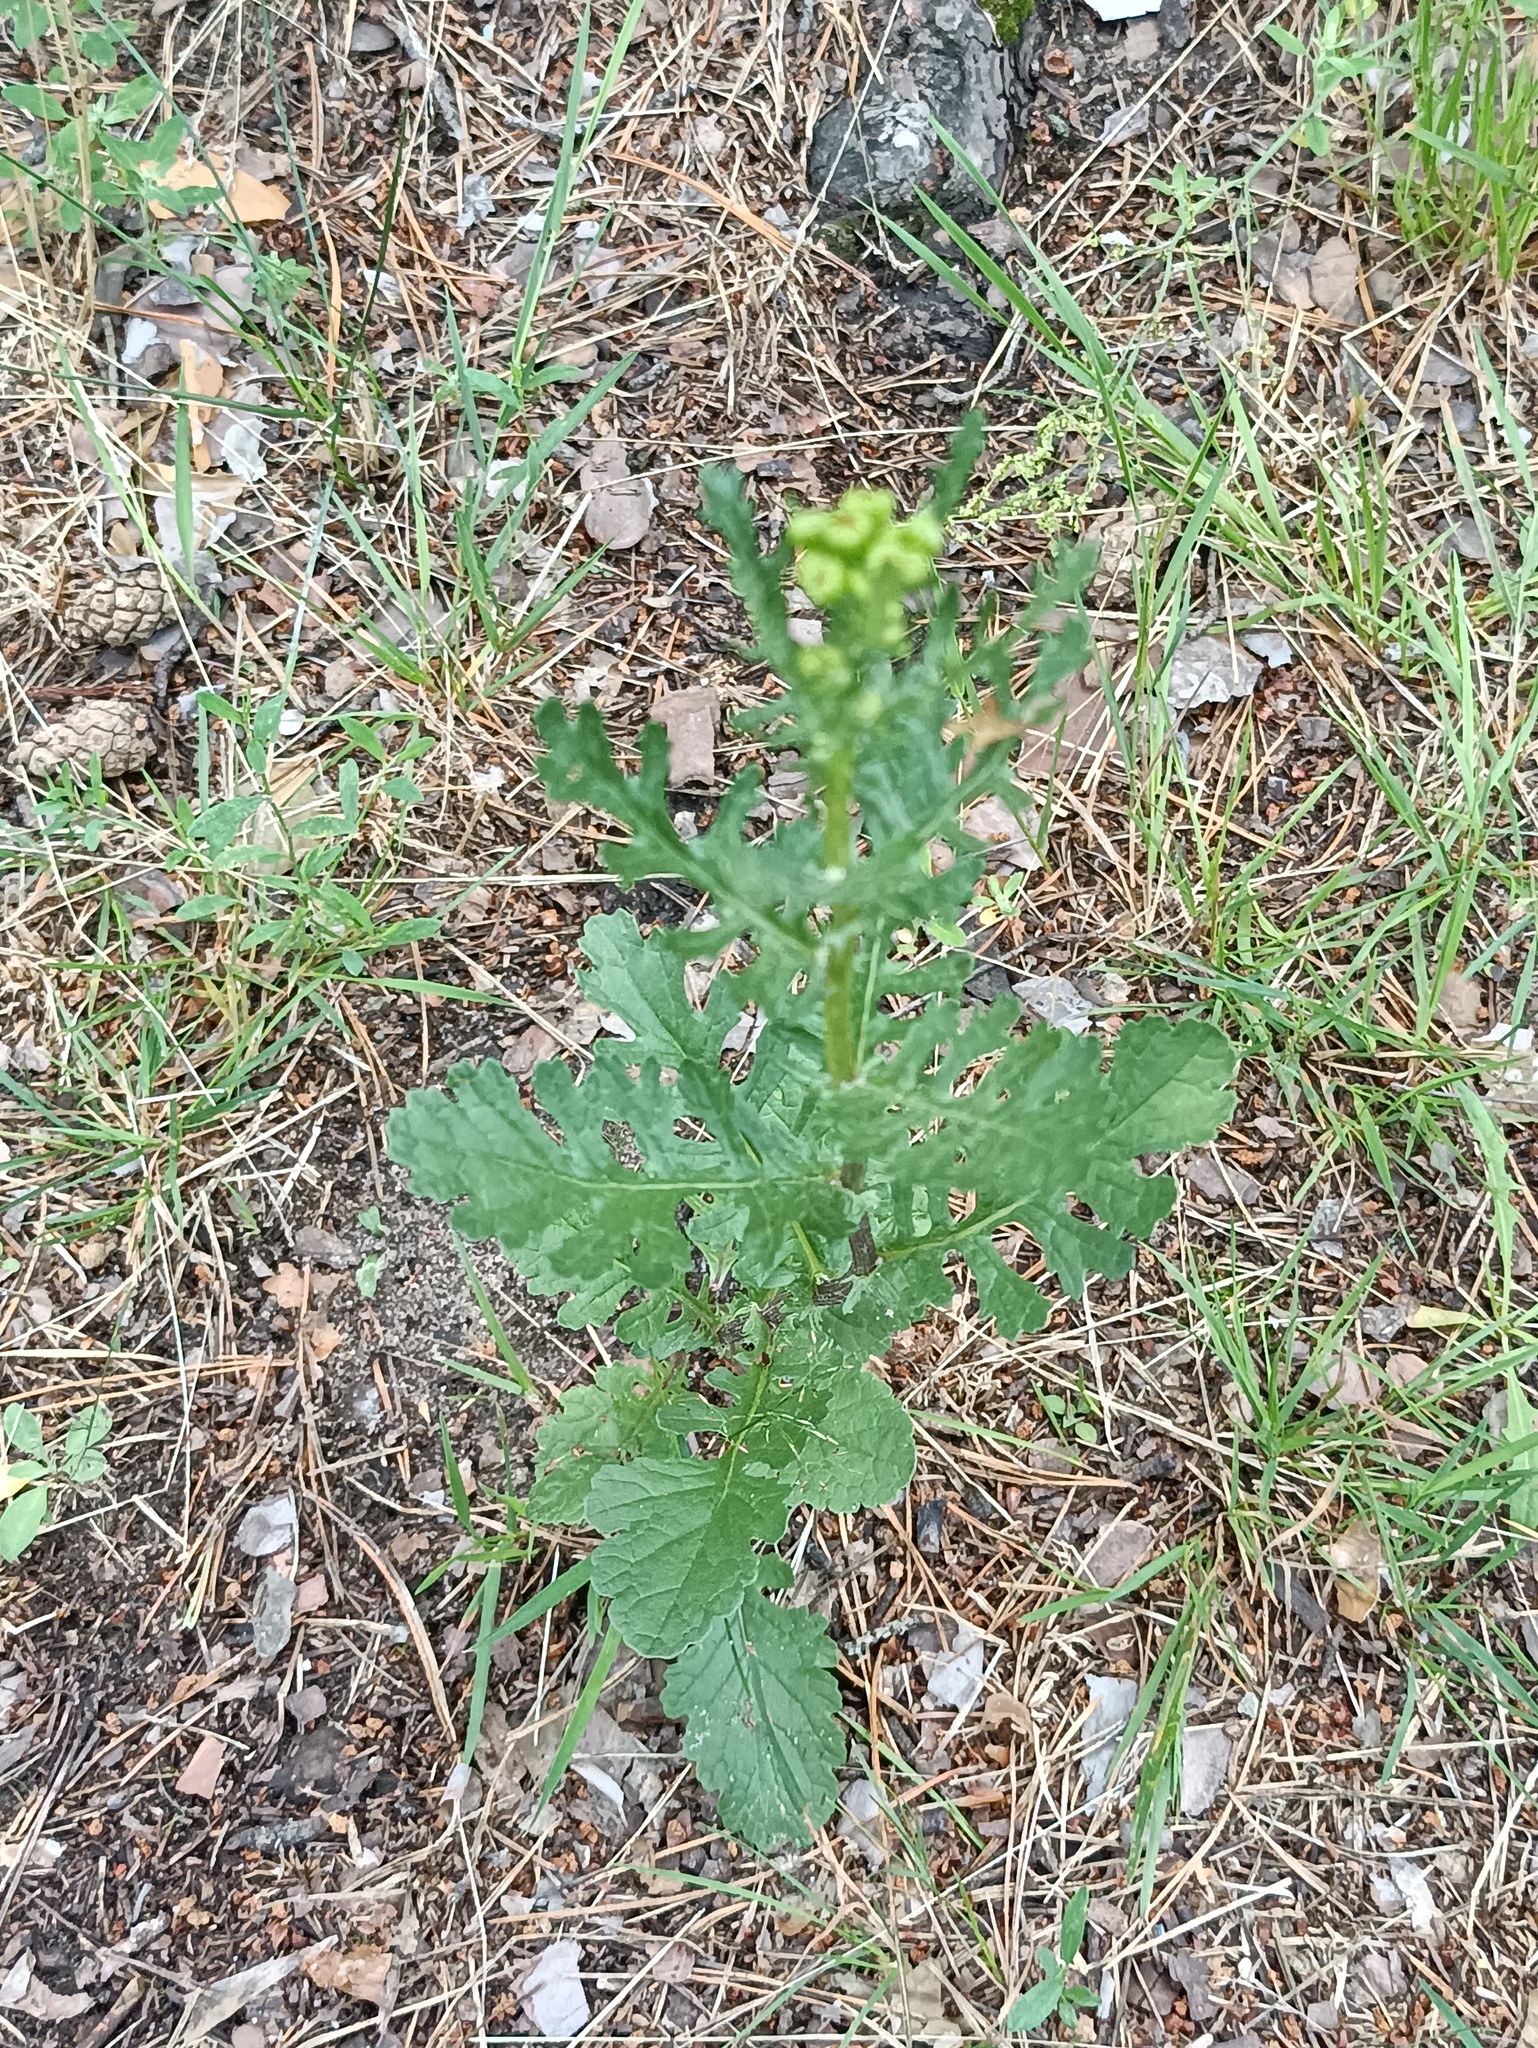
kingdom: Plantae
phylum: Tracheophyta
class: Magnoliopsida
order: Asterales
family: Asteraceae
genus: Jacobaea
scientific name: Jacobaea vulgaris
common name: Stinking willie
